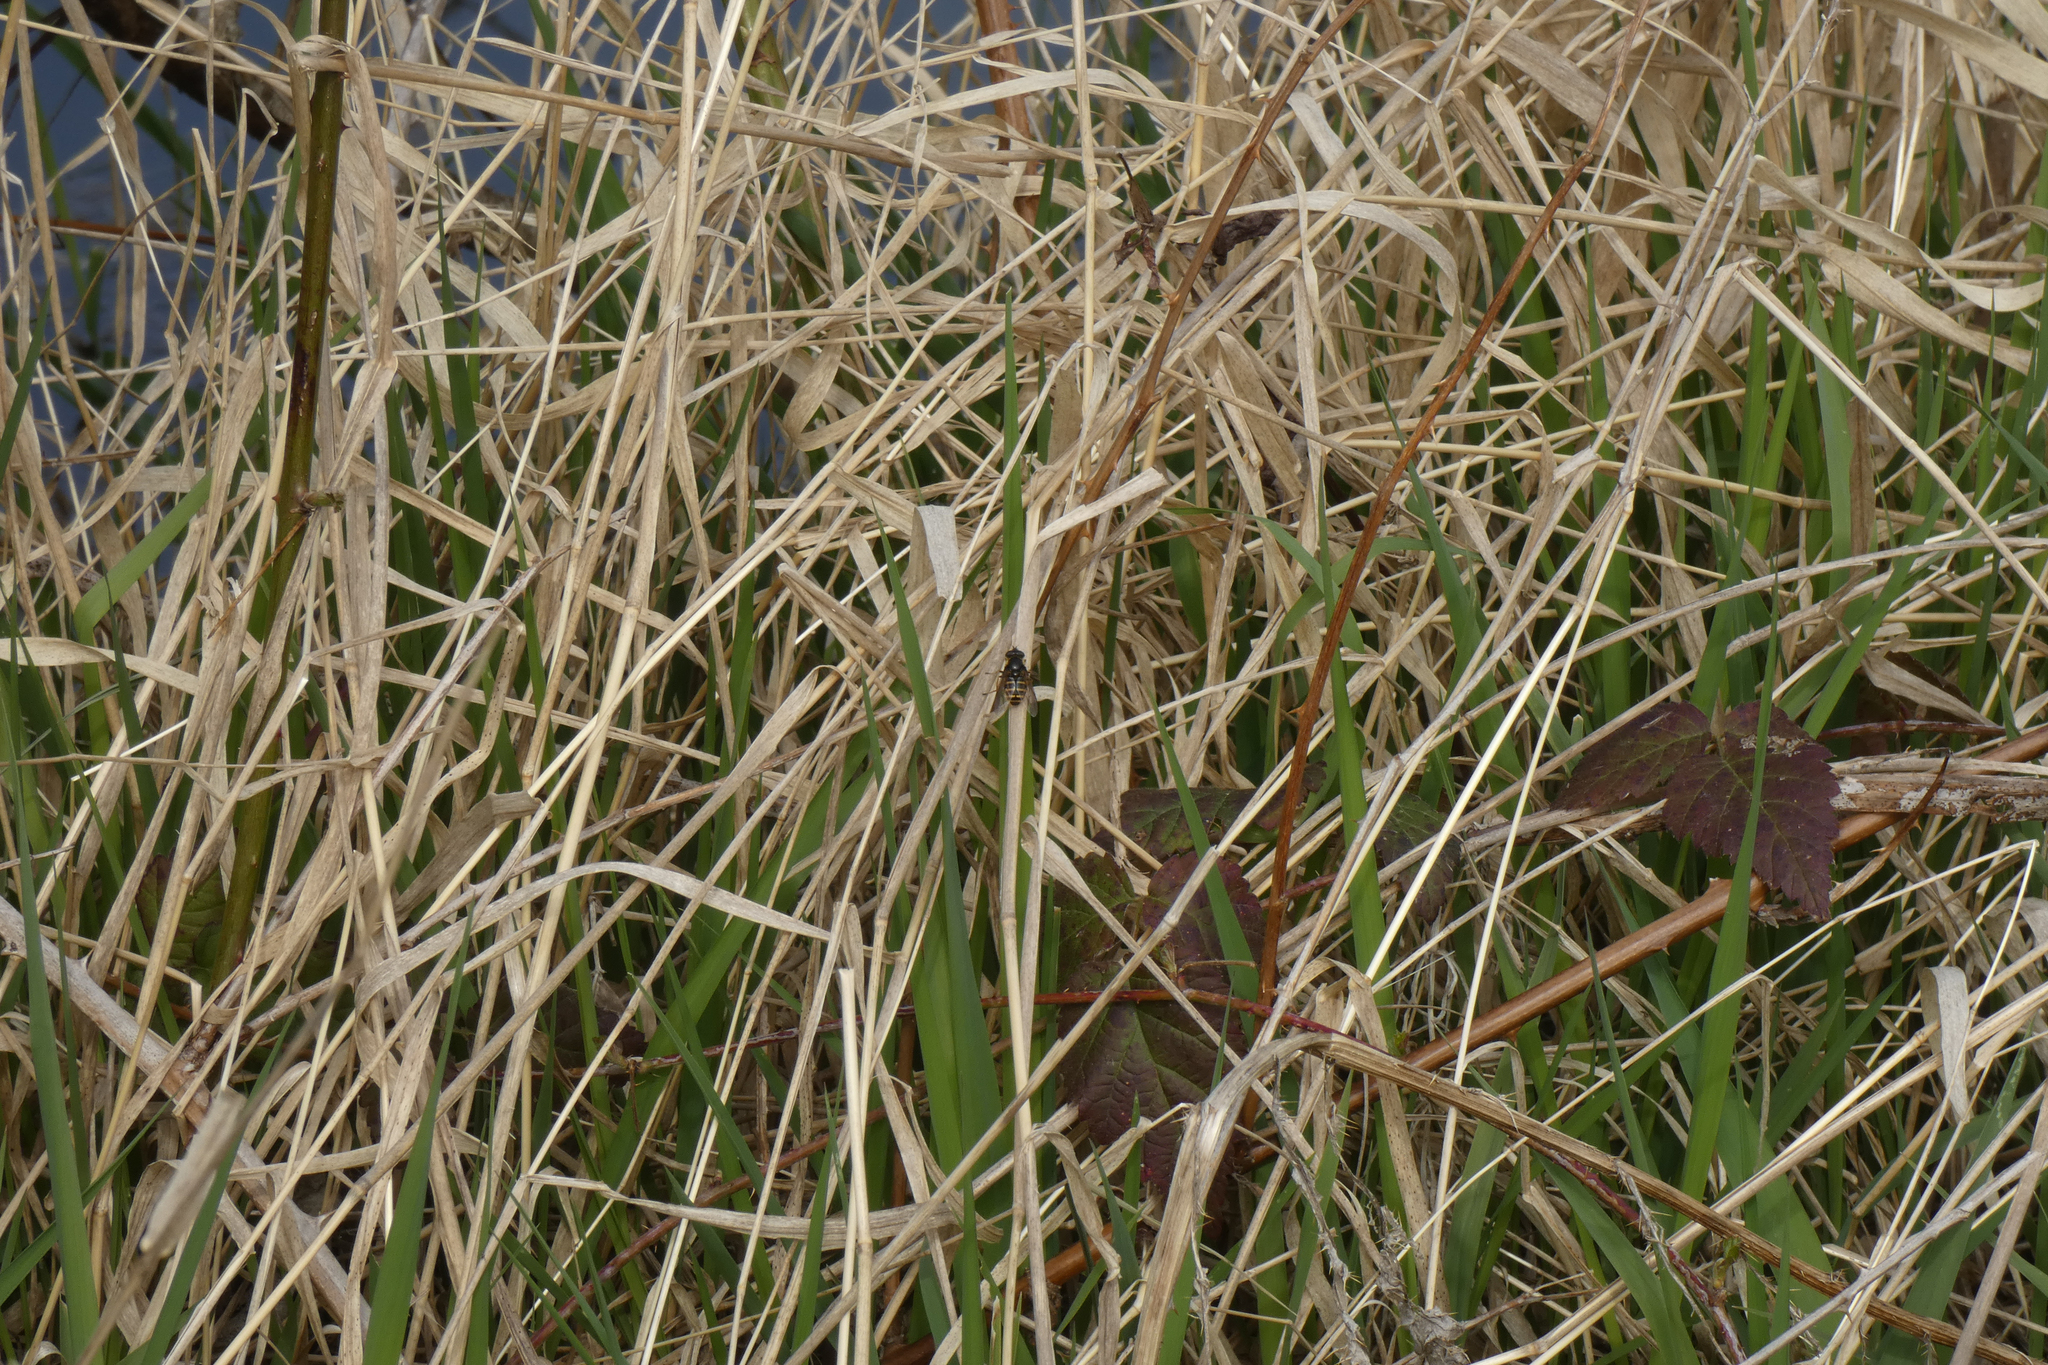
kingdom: Animalia
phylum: Arthropoda
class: Insecta
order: Diptera
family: Syrphidae
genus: Sericomyia
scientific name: Sericomyia chalcopyga
